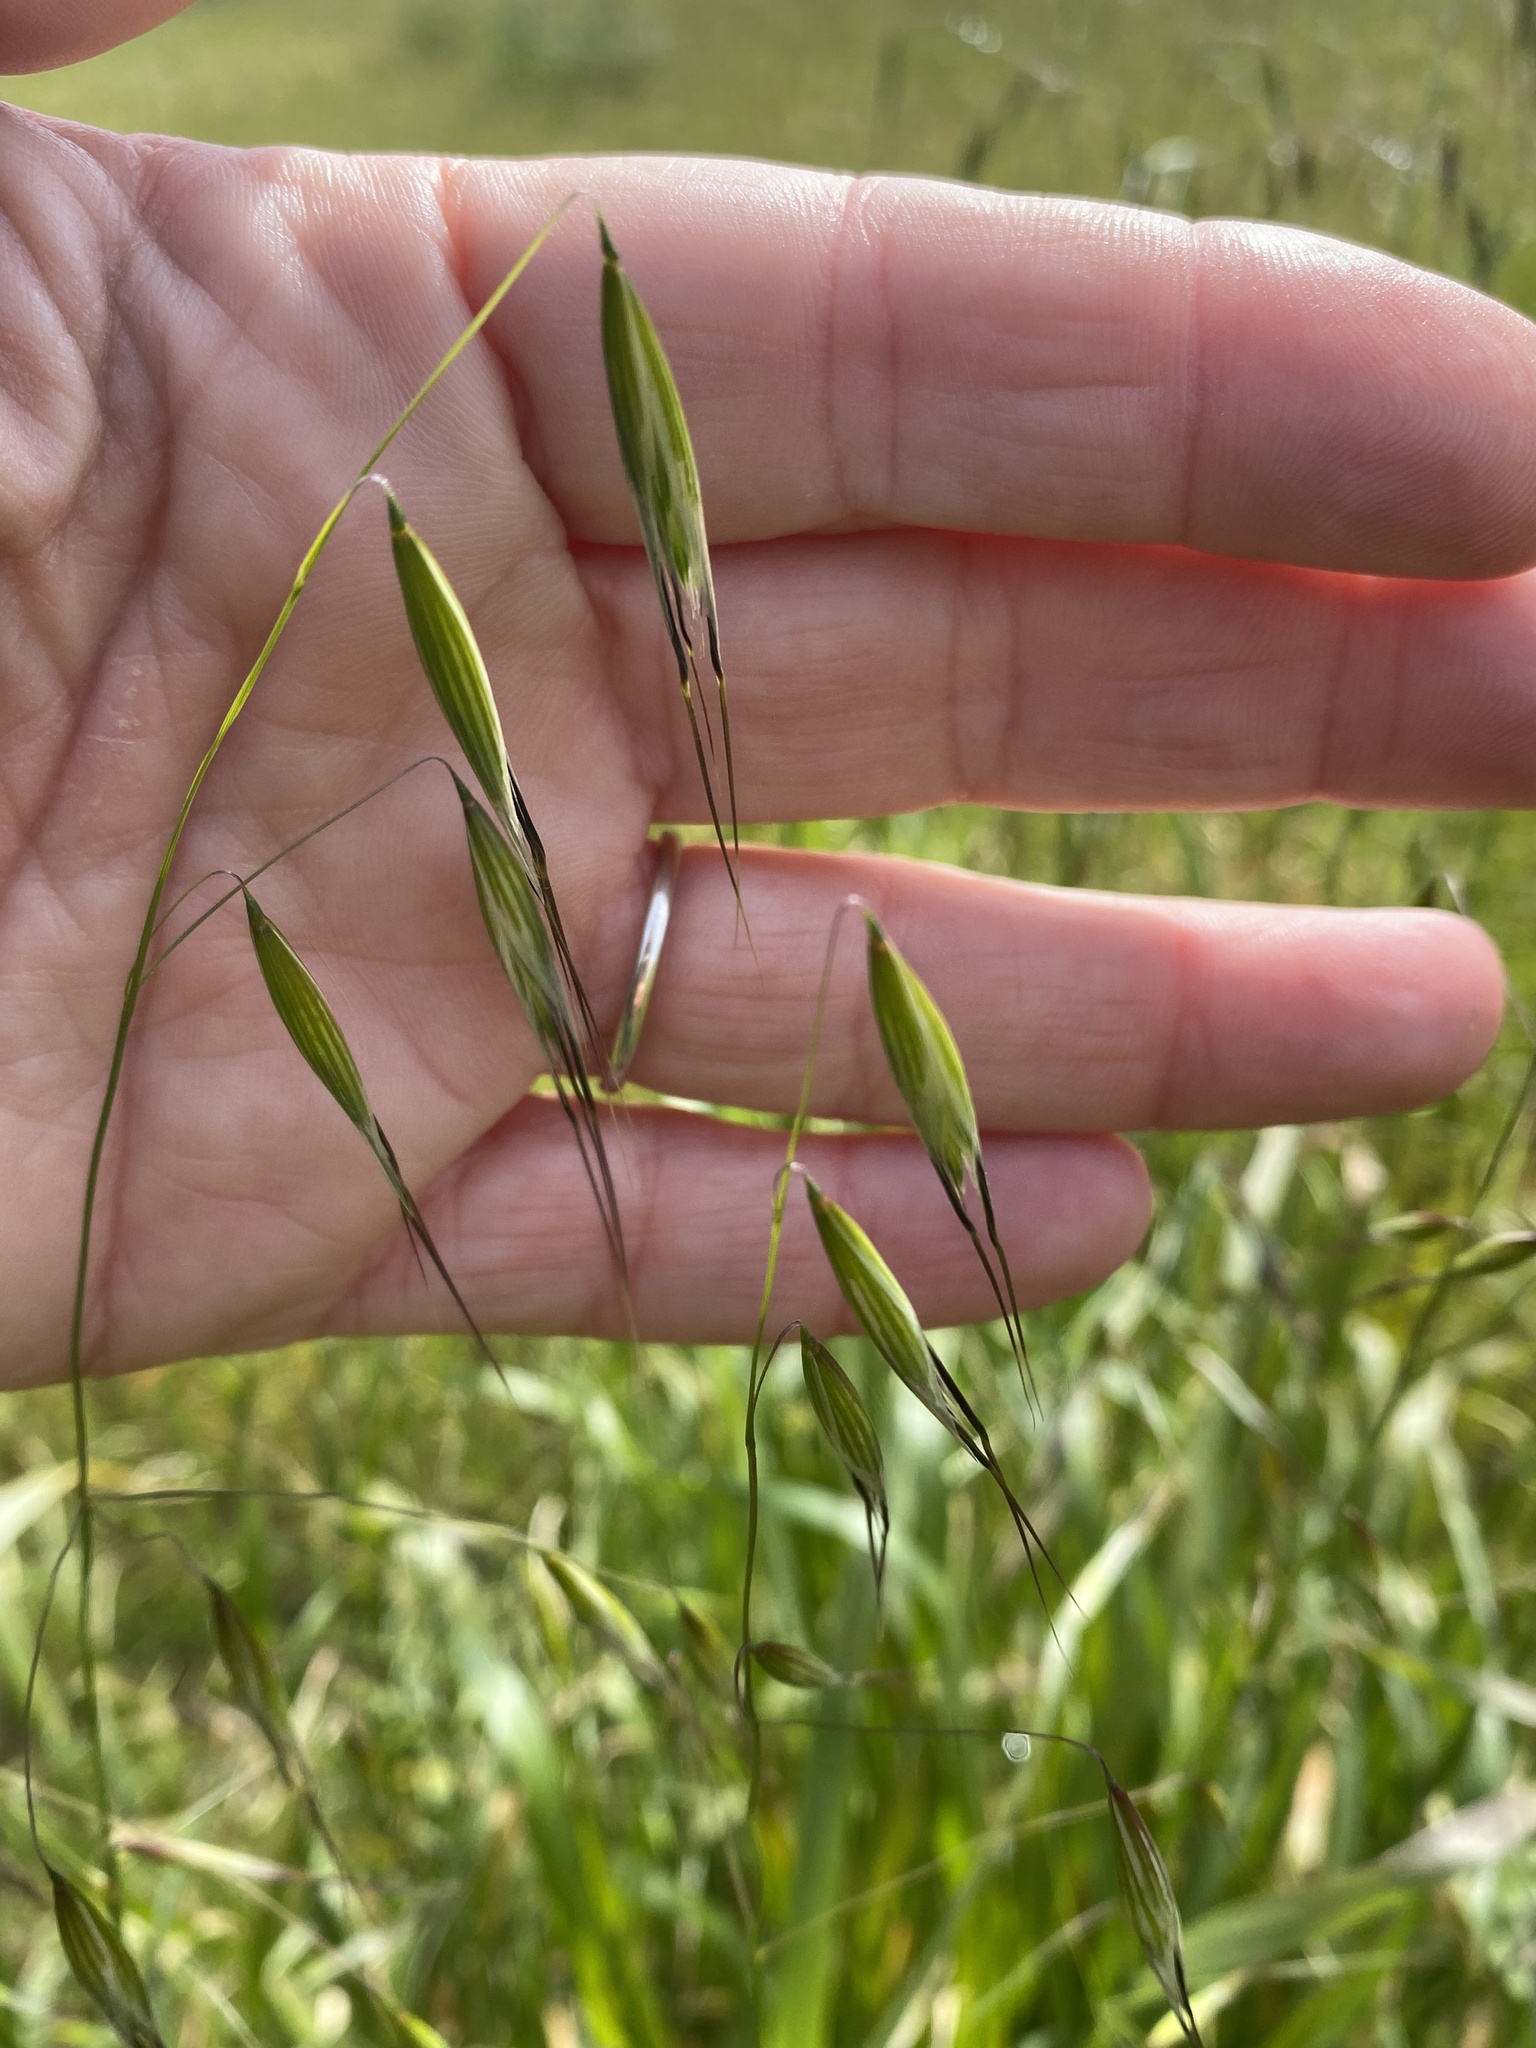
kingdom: Plantae
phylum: Tracheophyta
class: Liliopsida
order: Poales
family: Poaceae
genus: Avena
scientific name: Avena fatua
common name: Wild oat
